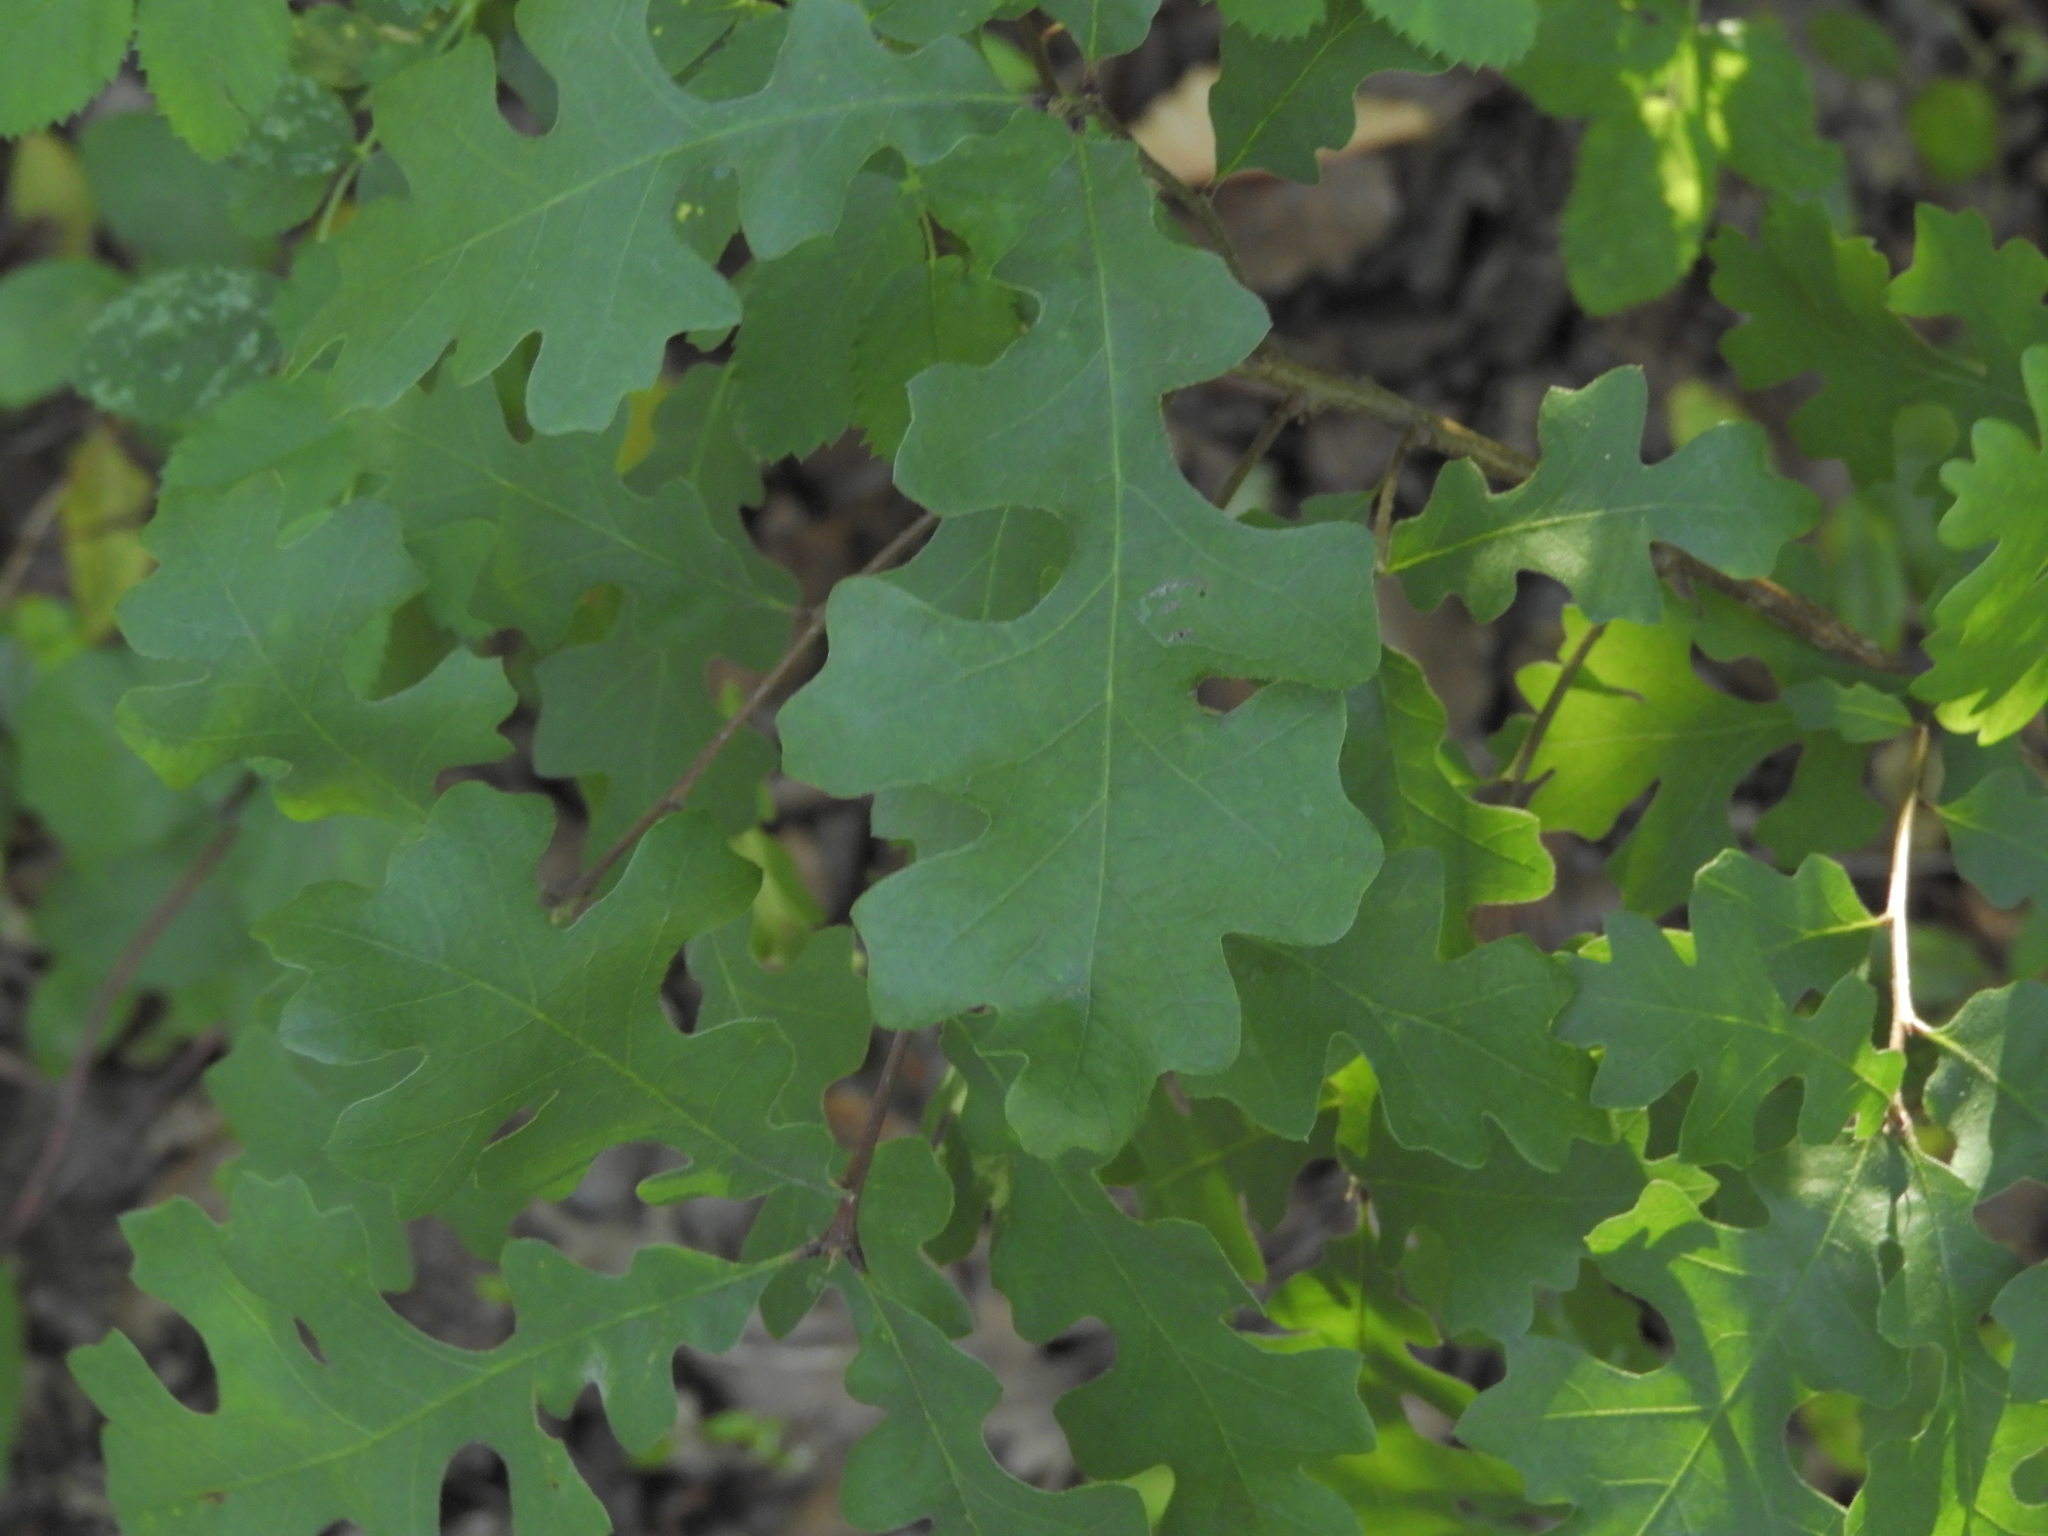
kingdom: Plantae
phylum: Tracheophyta
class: Magnoliopsida
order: Fagales
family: Fagaceae
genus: Quercus
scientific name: Quercus lobata
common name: Valley oak
